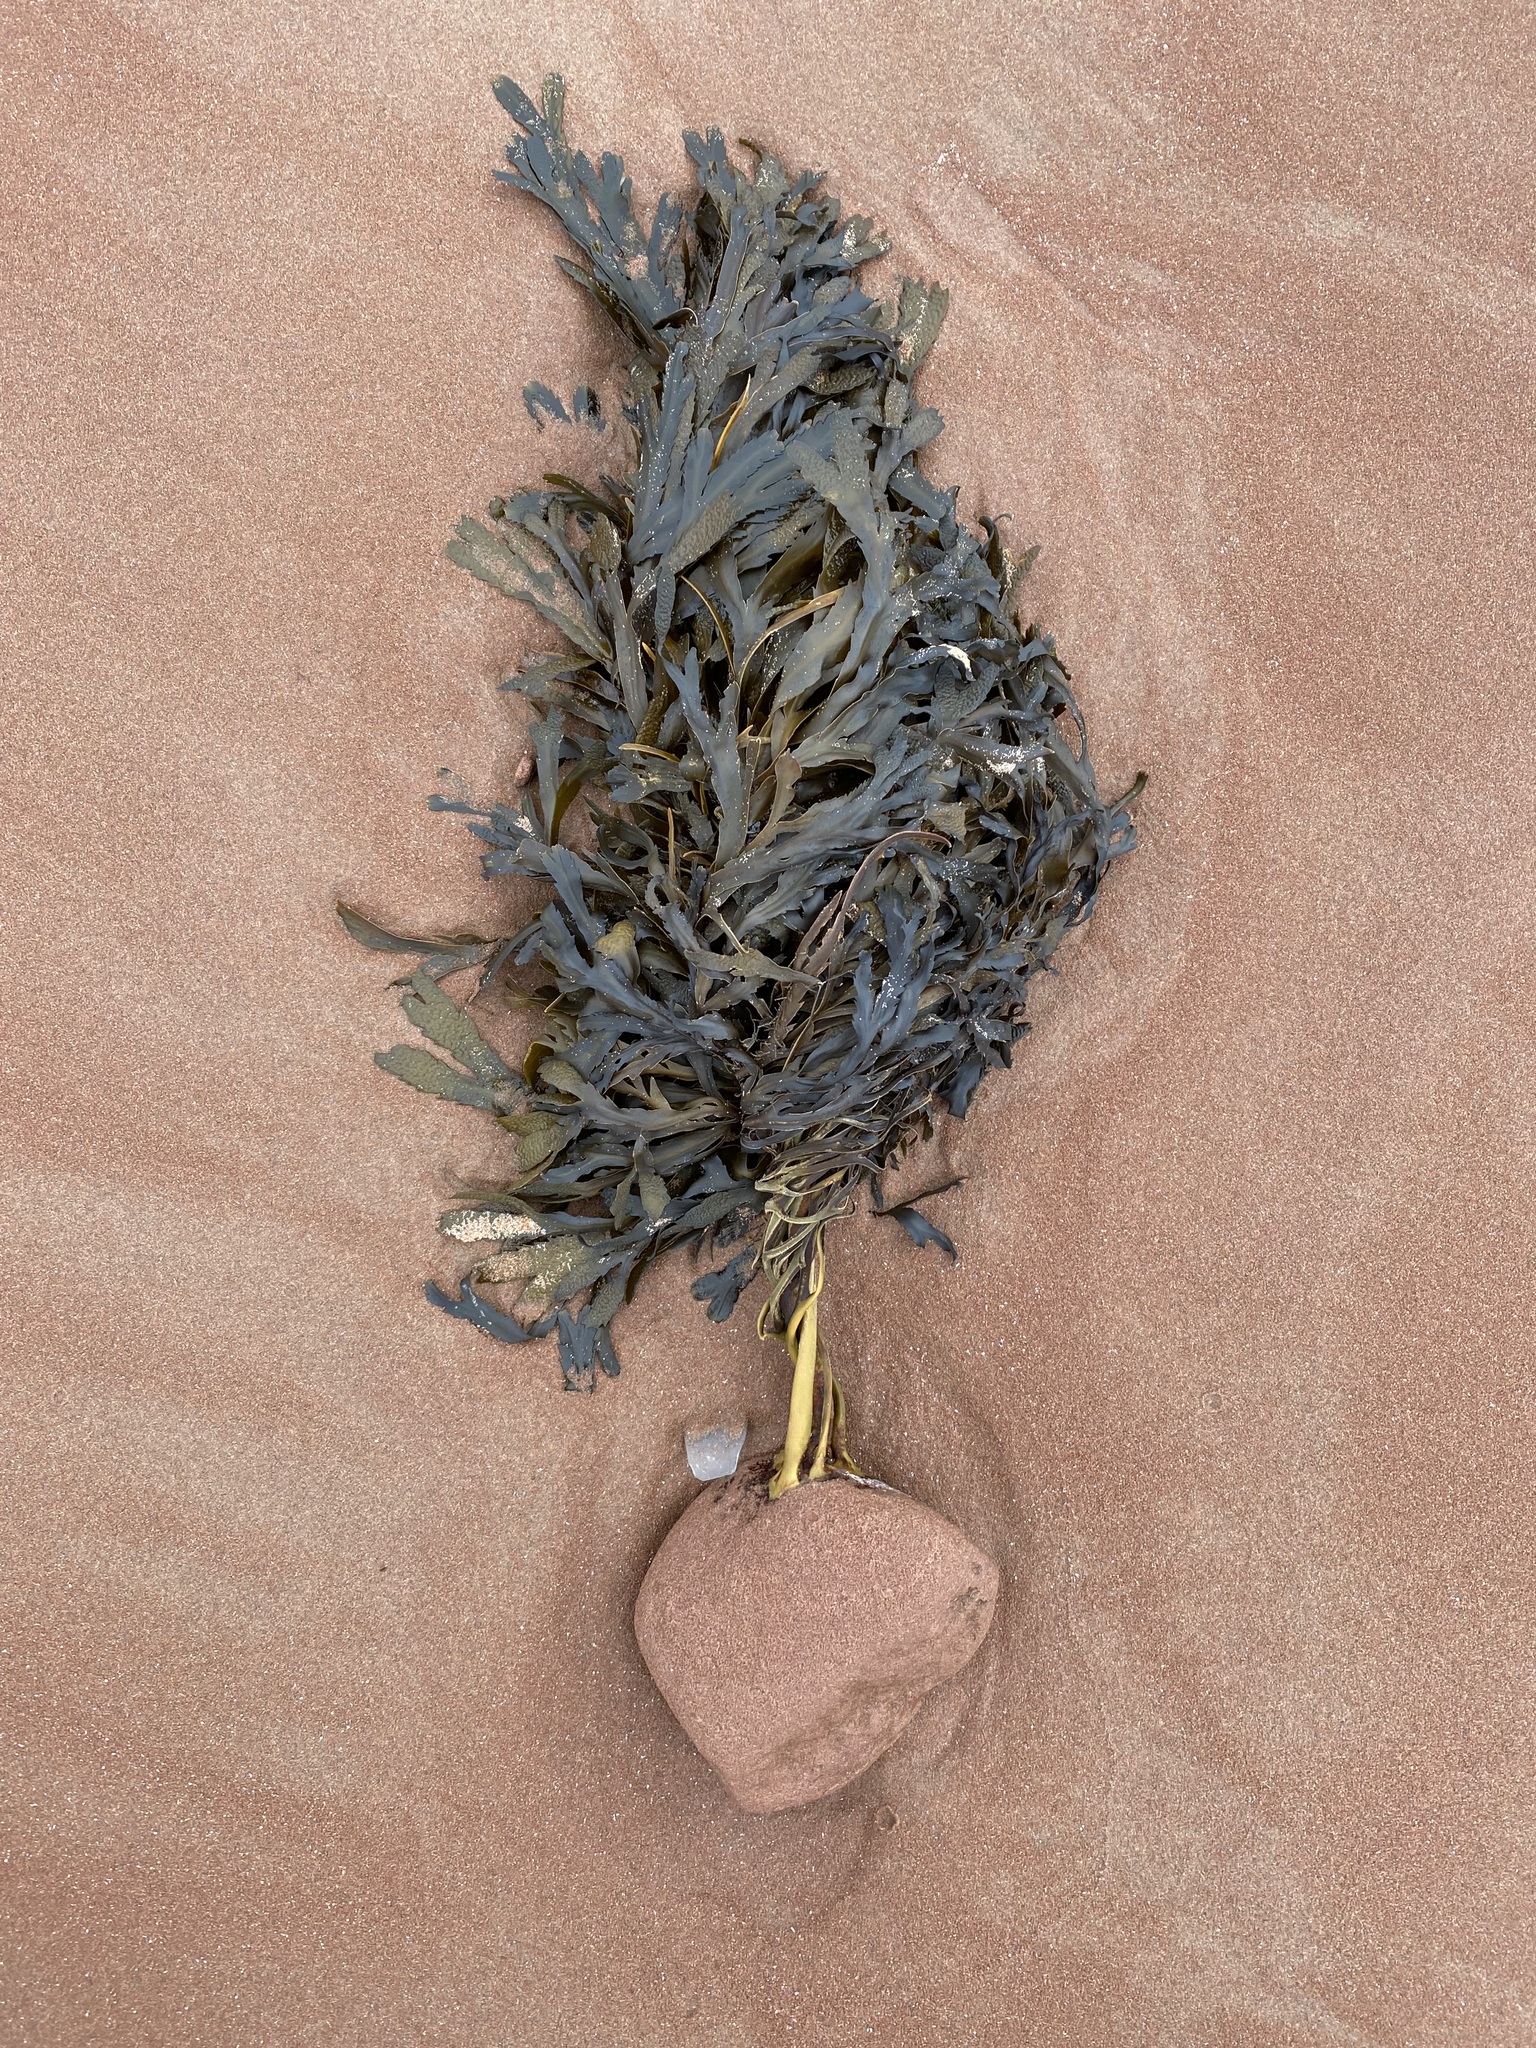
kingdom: Chromista
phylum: Ochrophyta
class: Phaeophyceae
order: Fucales
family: Fucaceae
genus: Fucus
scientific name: Fucus serratus
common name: Toothed wrack
